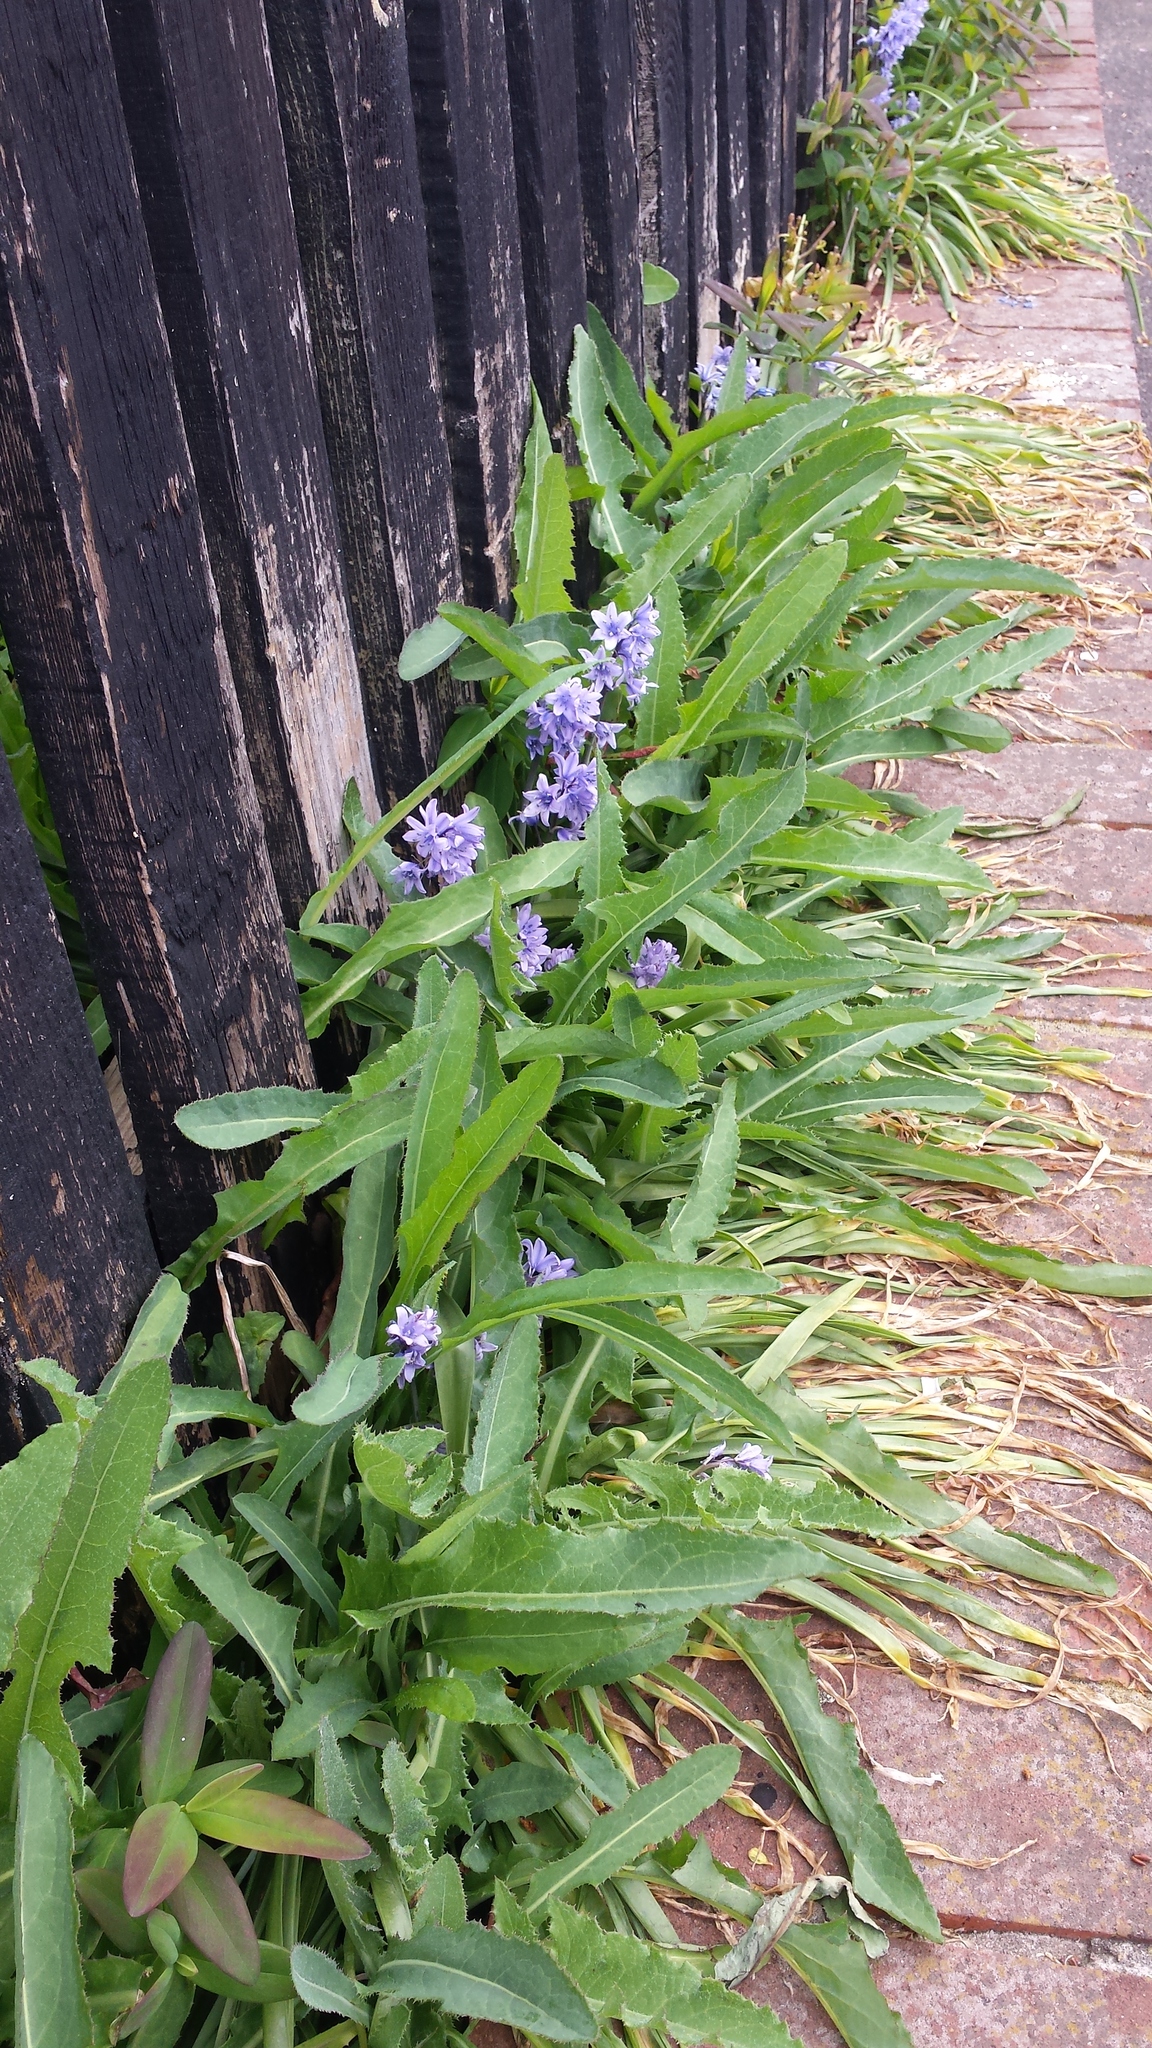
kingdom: Plantae
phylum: Tracheophyta
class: Liliopsida
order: Asparagales
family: Asparagaceae
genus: Hyacinthoides
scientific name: Hyacinthoides massartiana
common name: Hyacinthoides
